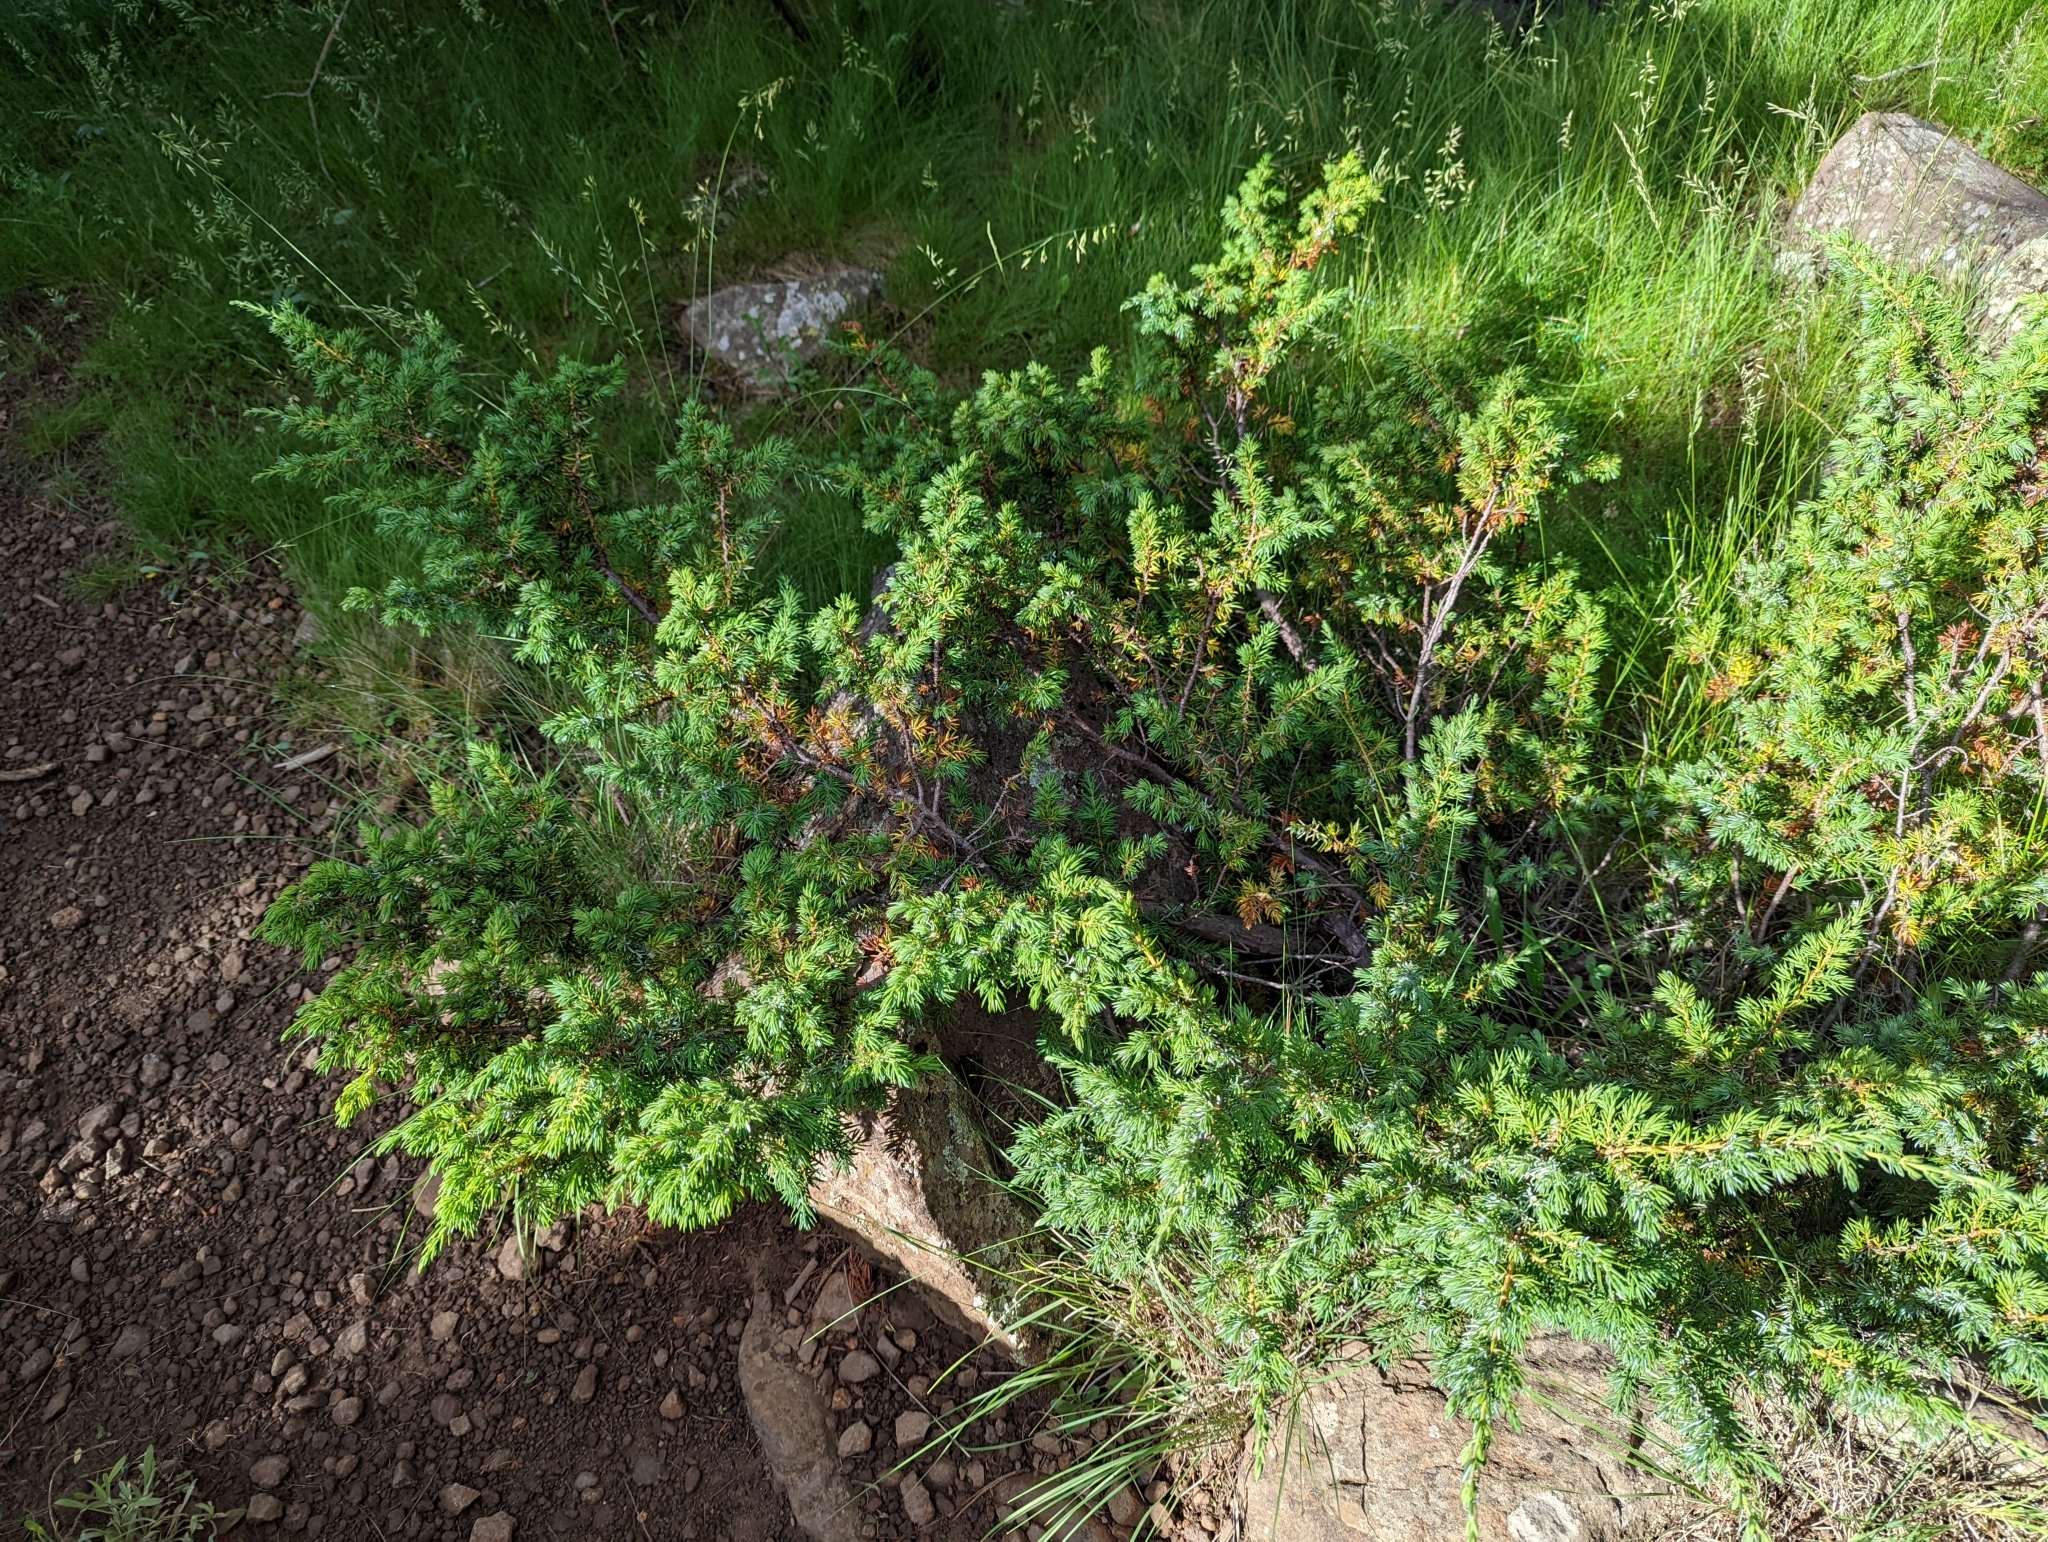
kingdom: Plantae
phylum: Tracheophyta
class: Pinopsida
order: Pinales
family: Cupressaceae
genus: Juniperus
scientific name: Juniperus communis
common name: Common juniper
